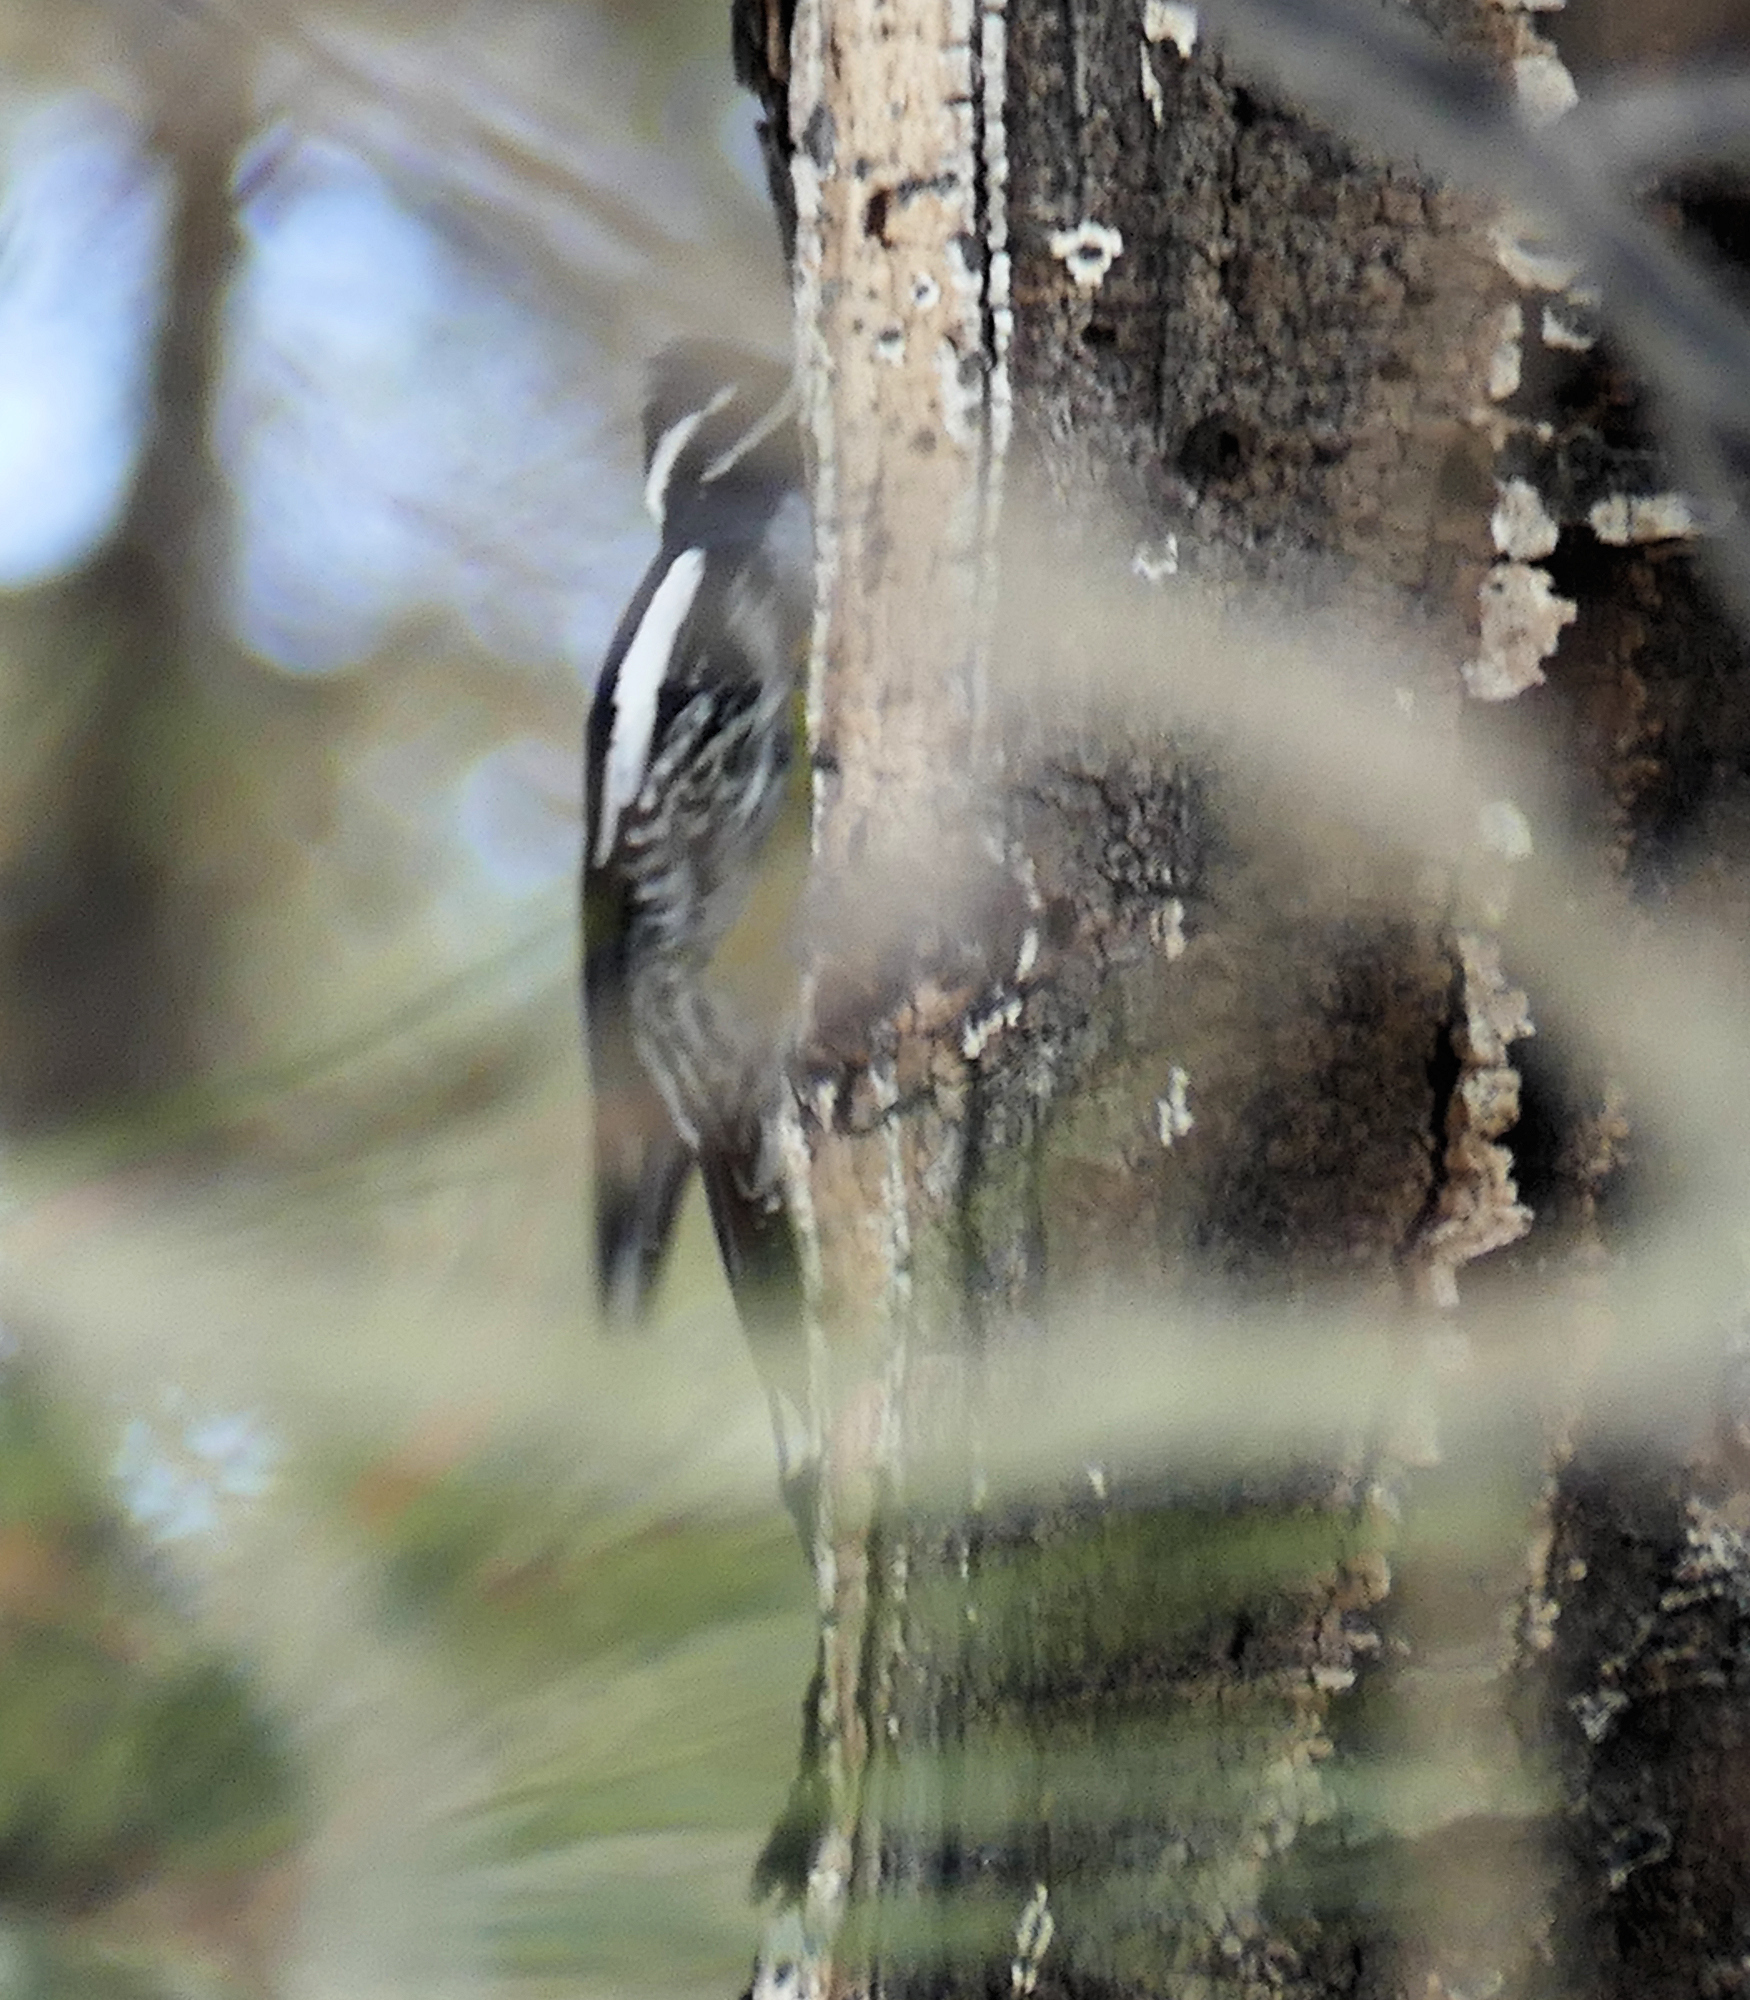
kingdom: Animalia
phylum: Chordata
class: Aves
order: Piciformes
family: Picidae
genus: Sphyrapicus
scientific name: Sphyrapicus thyroideus
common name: Williamson's sapsucker
